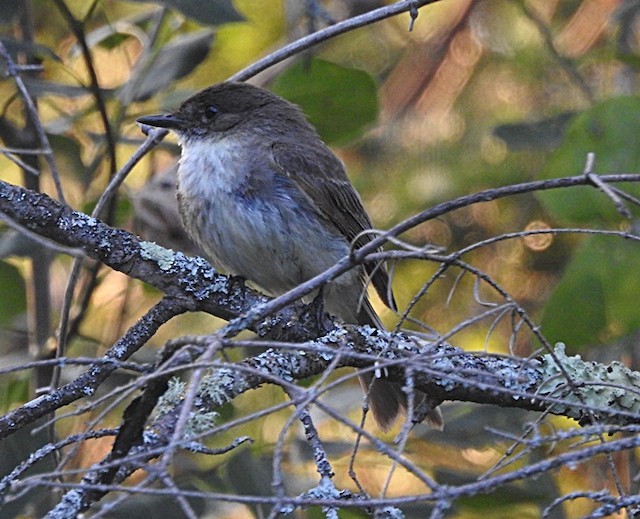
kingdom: Animalia
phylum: Chordata
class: Aves
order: Passeriformes
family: Tyrannidae
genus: Sayornis
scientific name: Sayornis phoebe
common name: Eastern phoebe
